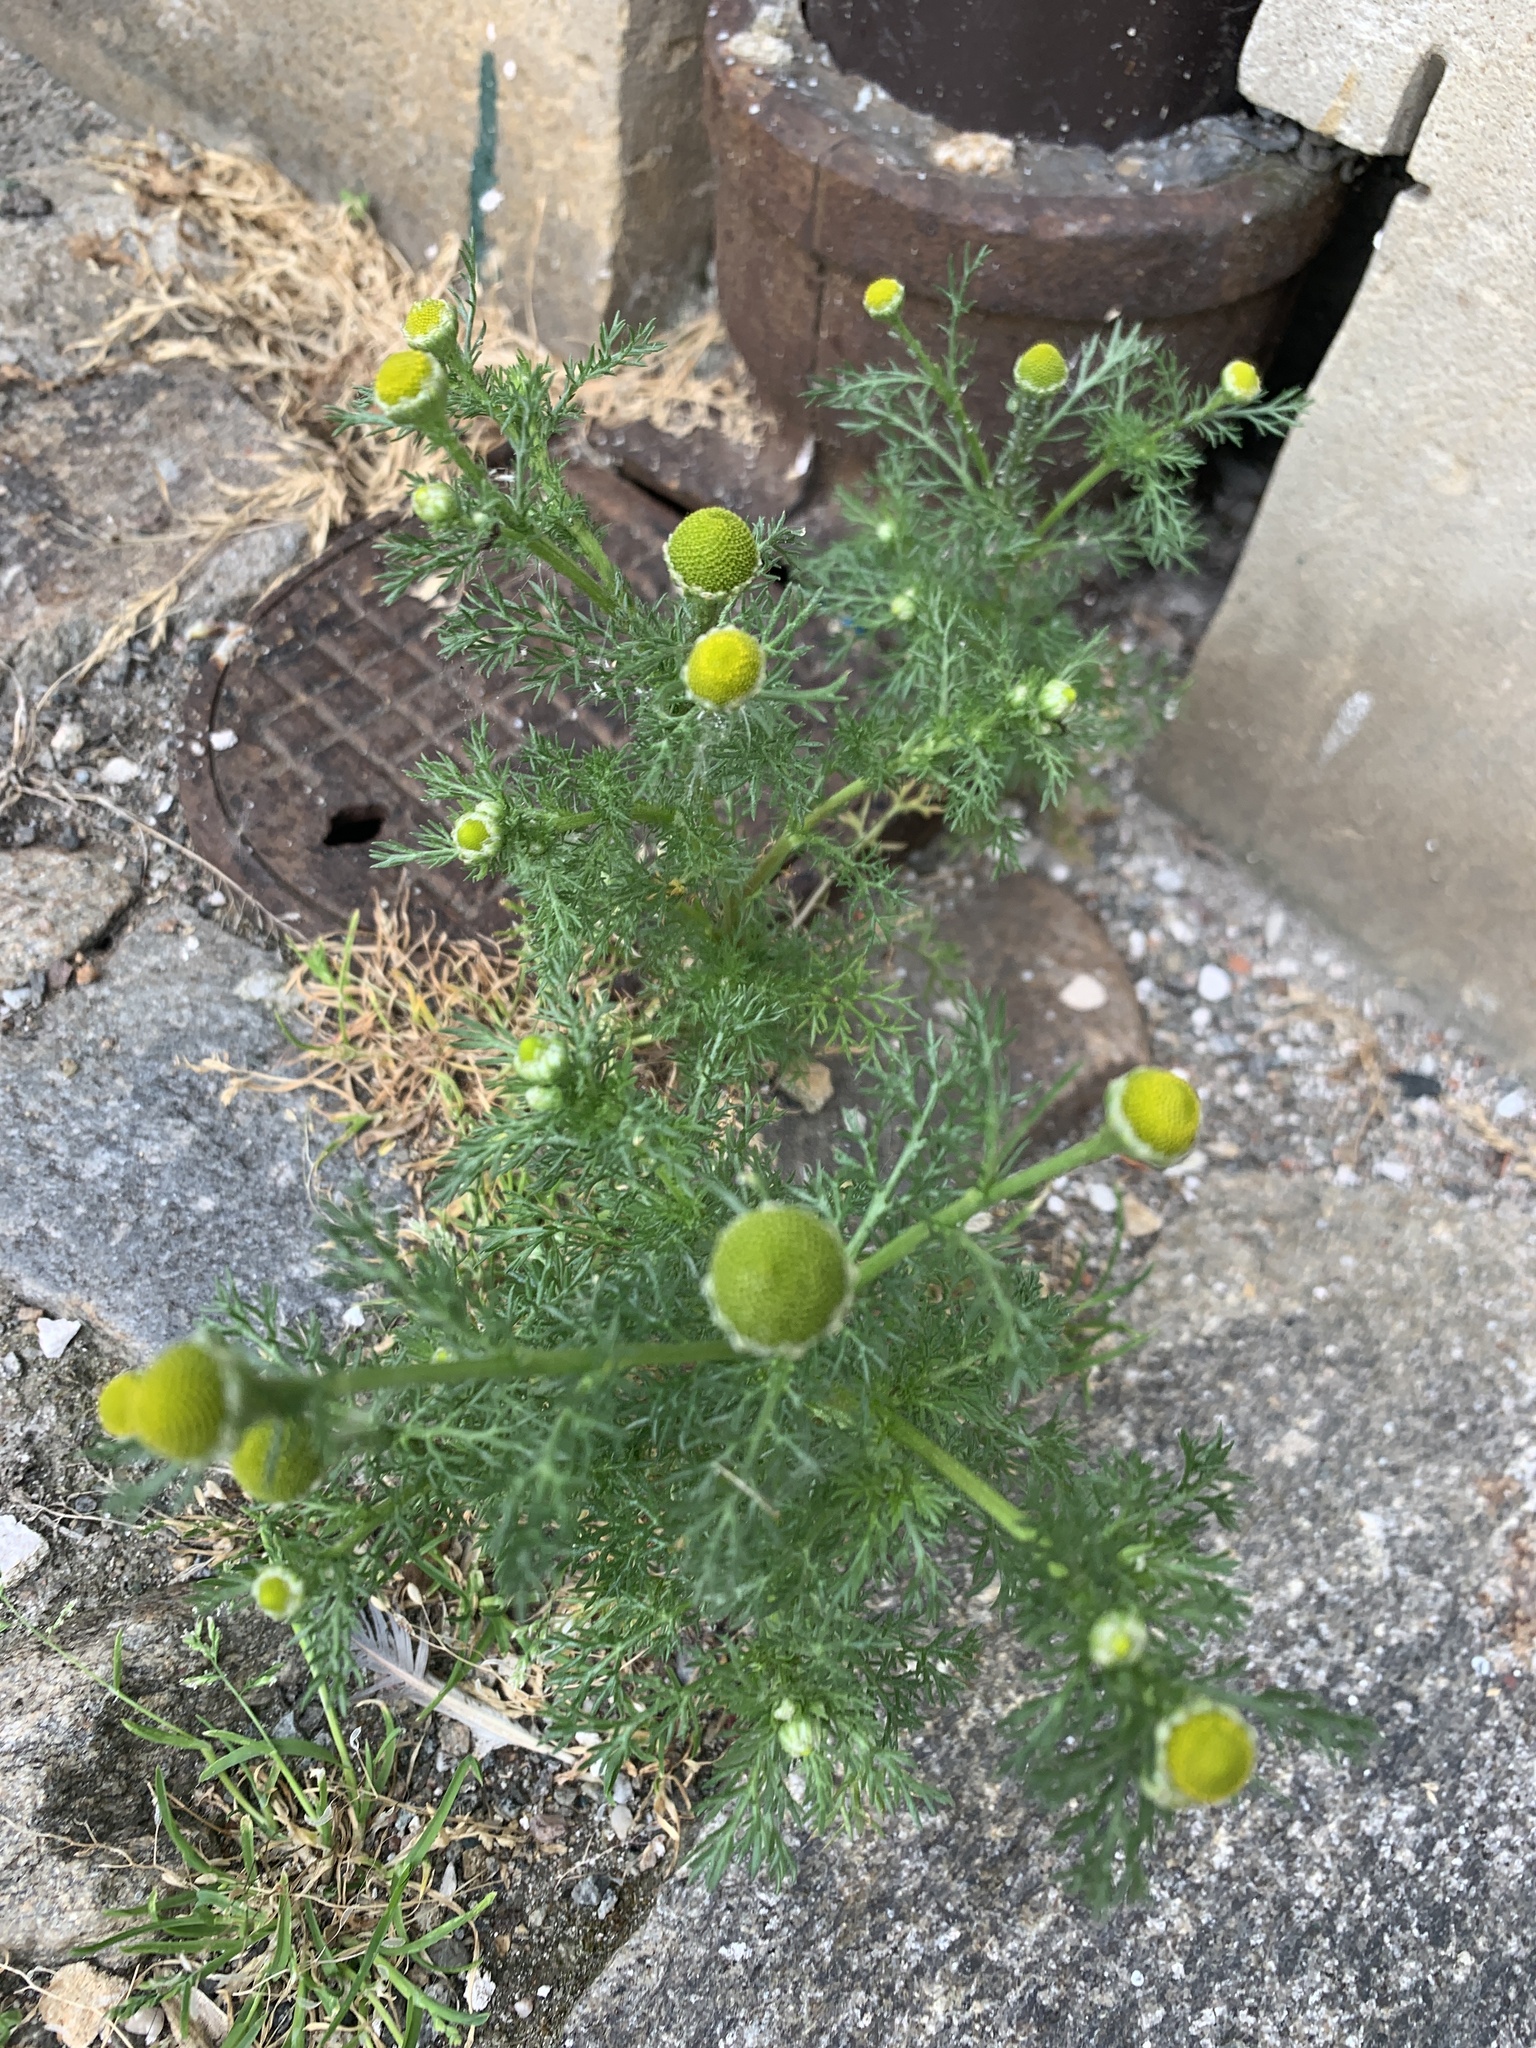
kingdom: Plantae
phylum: Tracheophyta
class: Magnoliopsida
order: Asterales
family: Asteraceae
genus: Matricaria
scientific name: Matricaria discoidea
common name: Disc mayweed
